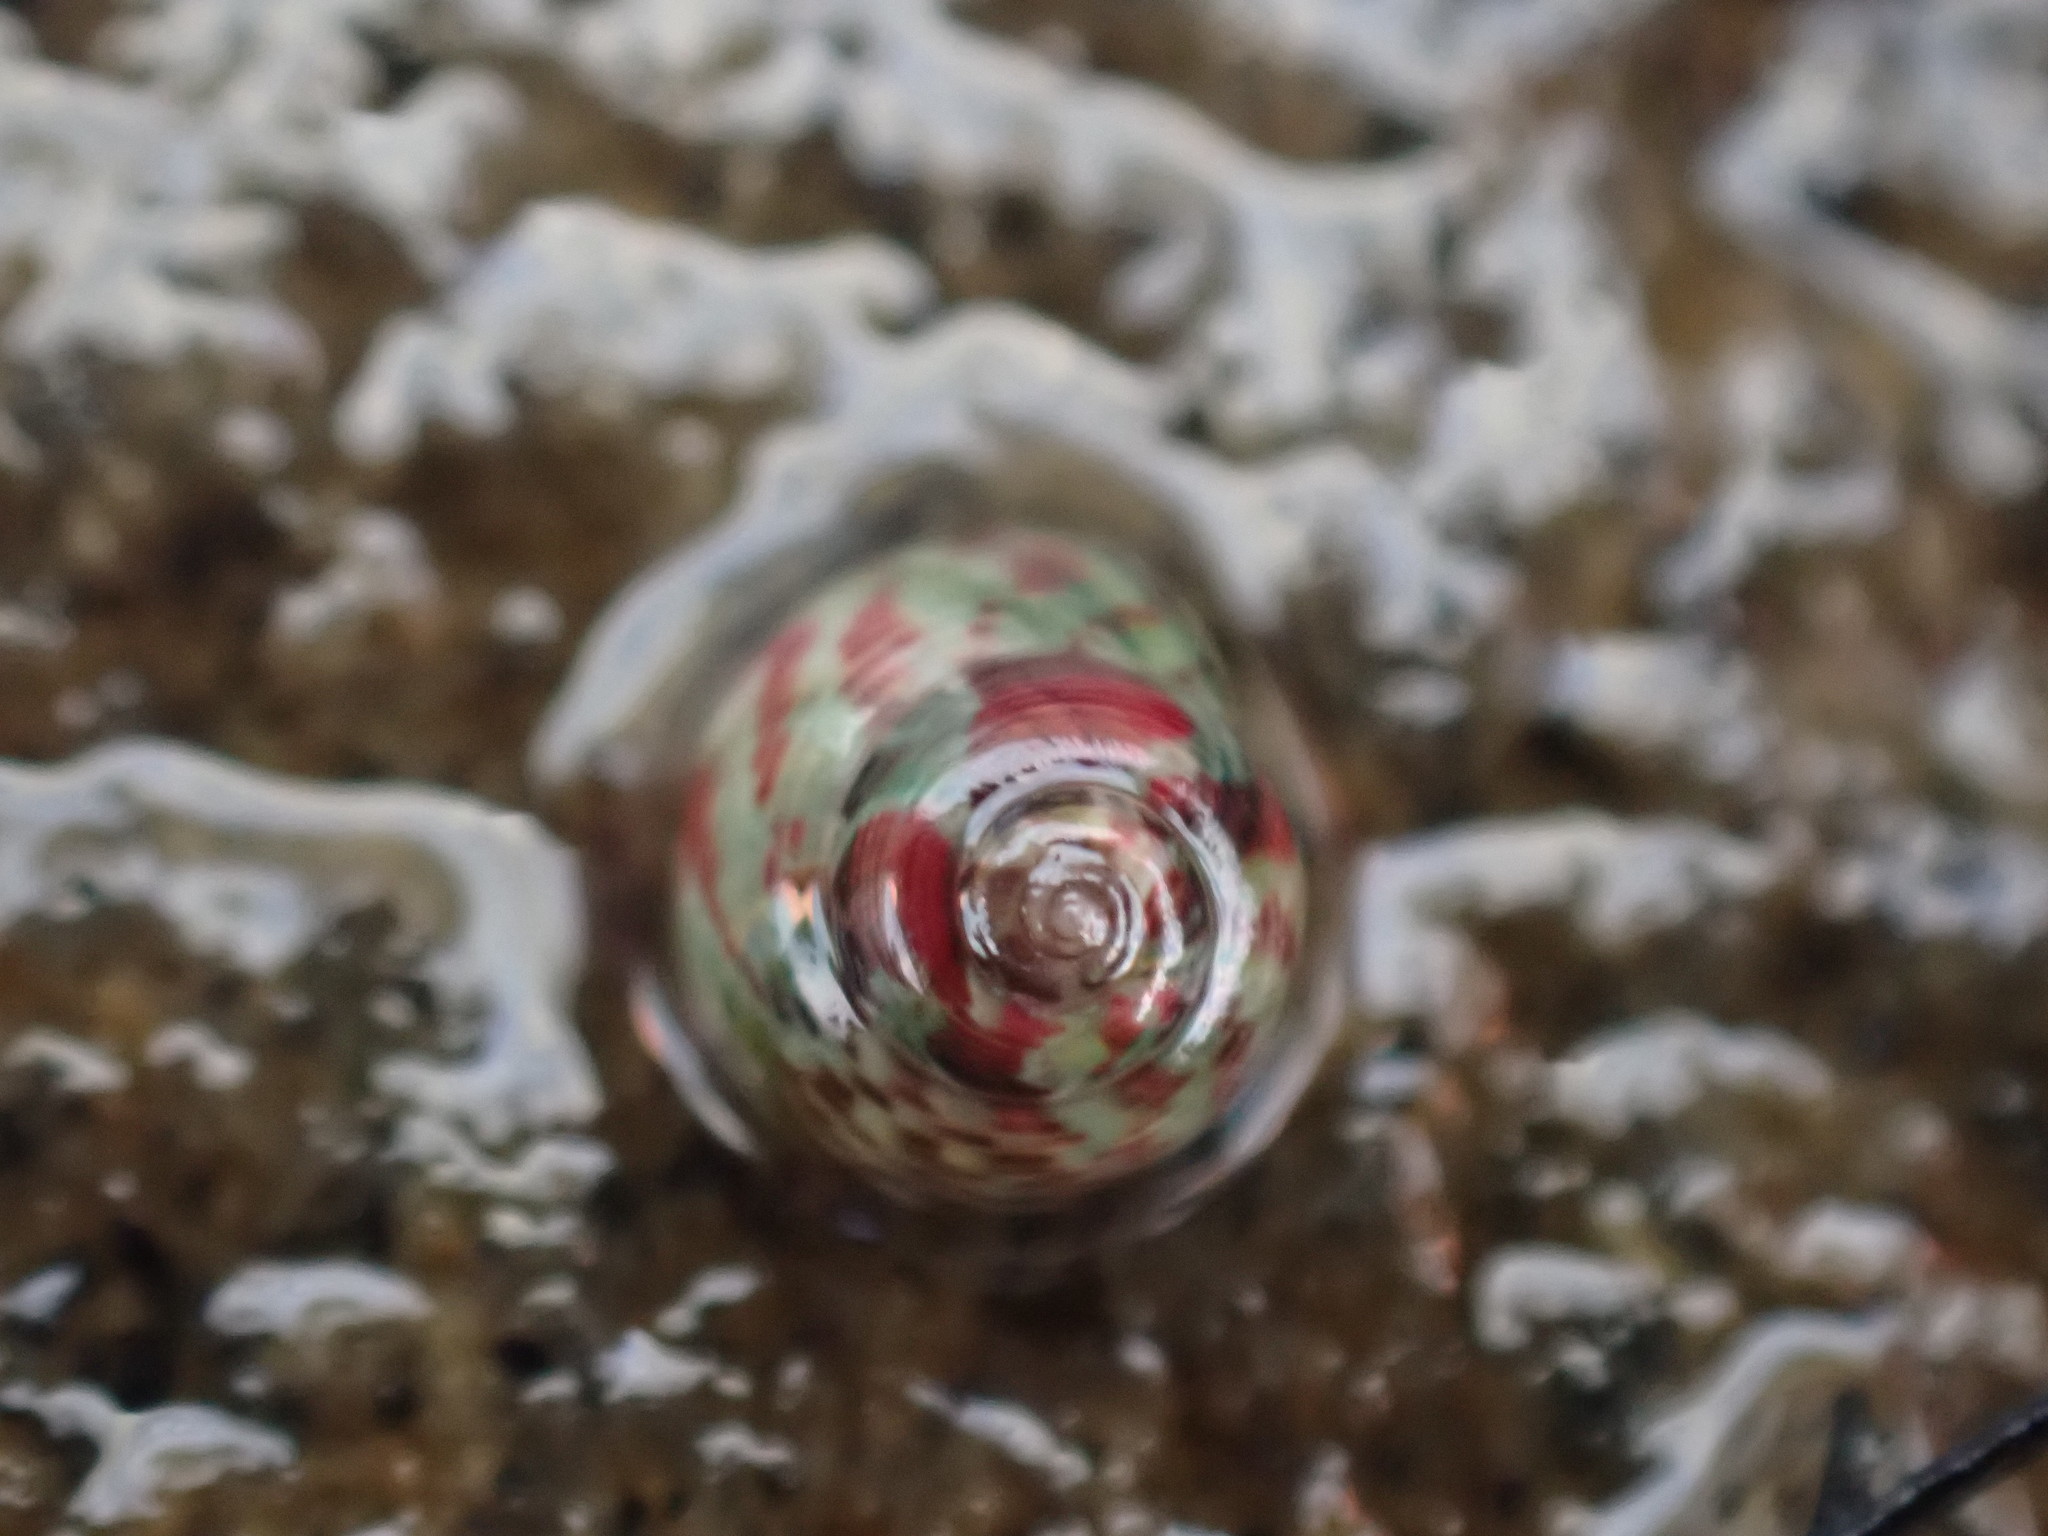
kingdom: Animalia
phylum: Mollusca
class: Gastropoda
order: Trochida
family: Trochidae
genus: Micrelenchus
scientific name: Micrelenchus tessellatus
